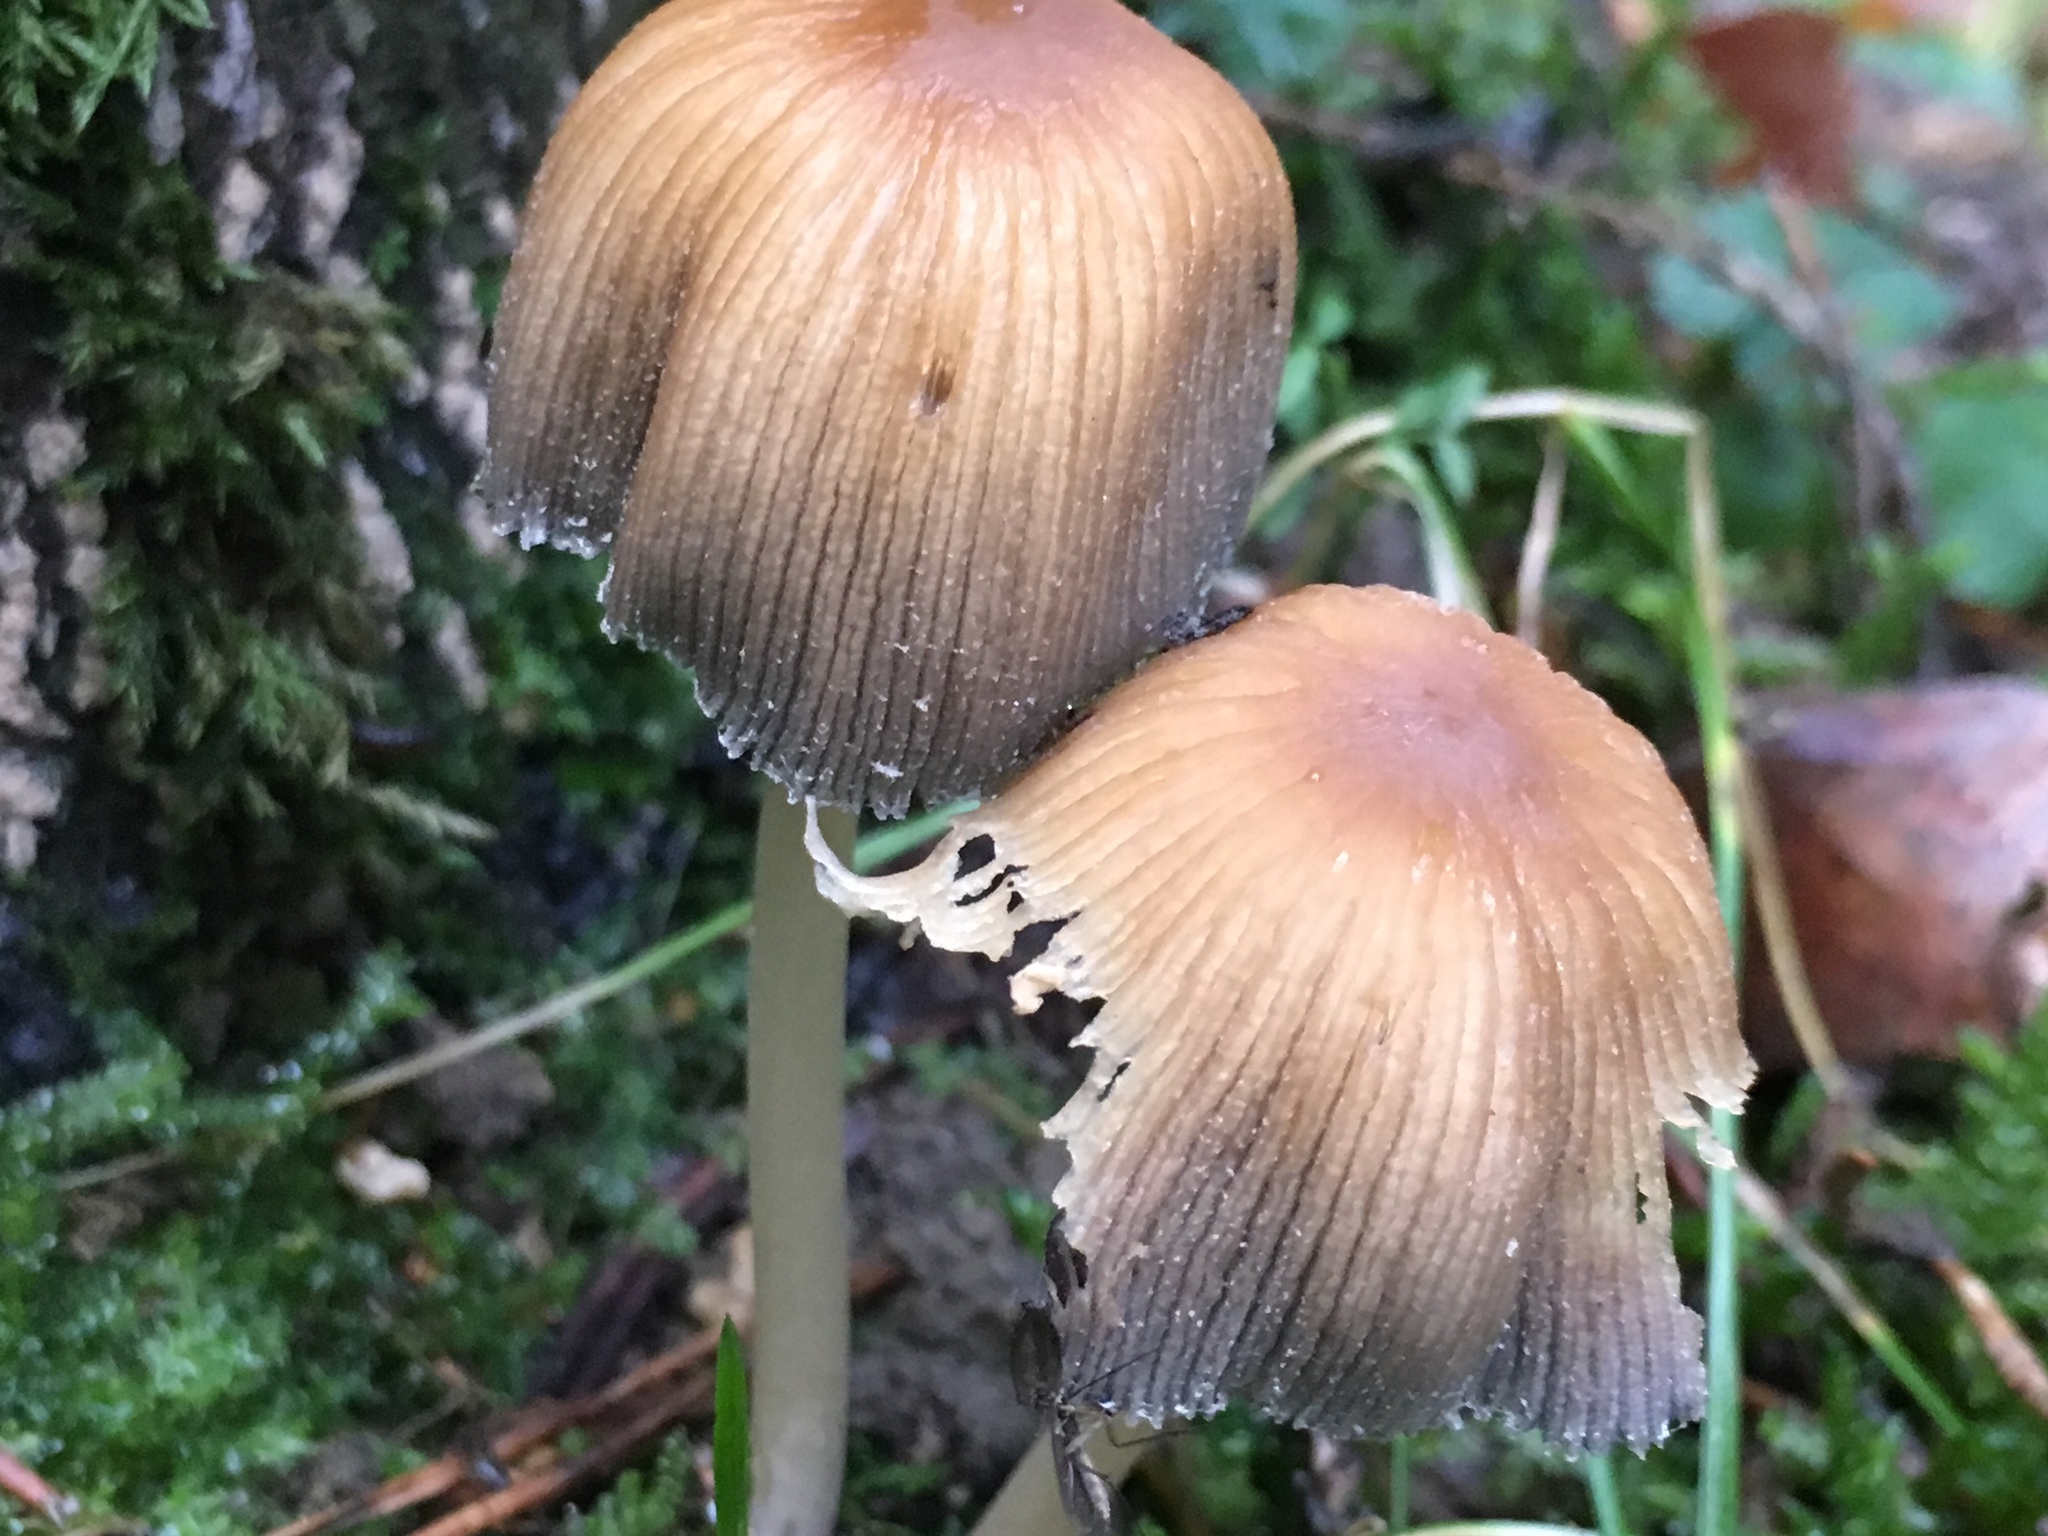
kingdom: Fungi
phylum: Basidiomycota
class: Agaricomycetes
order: Agaricales
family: Psathyrellaceae
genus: Coprinellus
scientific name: Coprinellus micaceus
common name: Glistening ink-cap
